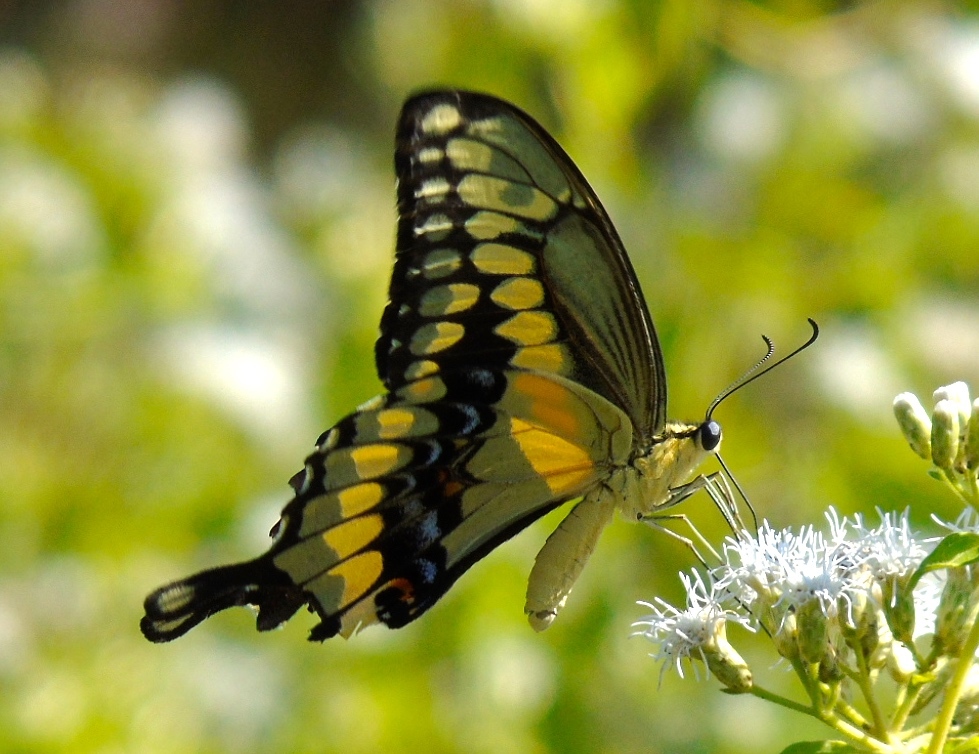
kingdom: Animalia
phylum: Arthropoda
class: Insecta
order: Lepidoptera
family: Papilionidae
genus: Papilio
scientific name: Papilio rumiko
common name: Western giant swallowtail
